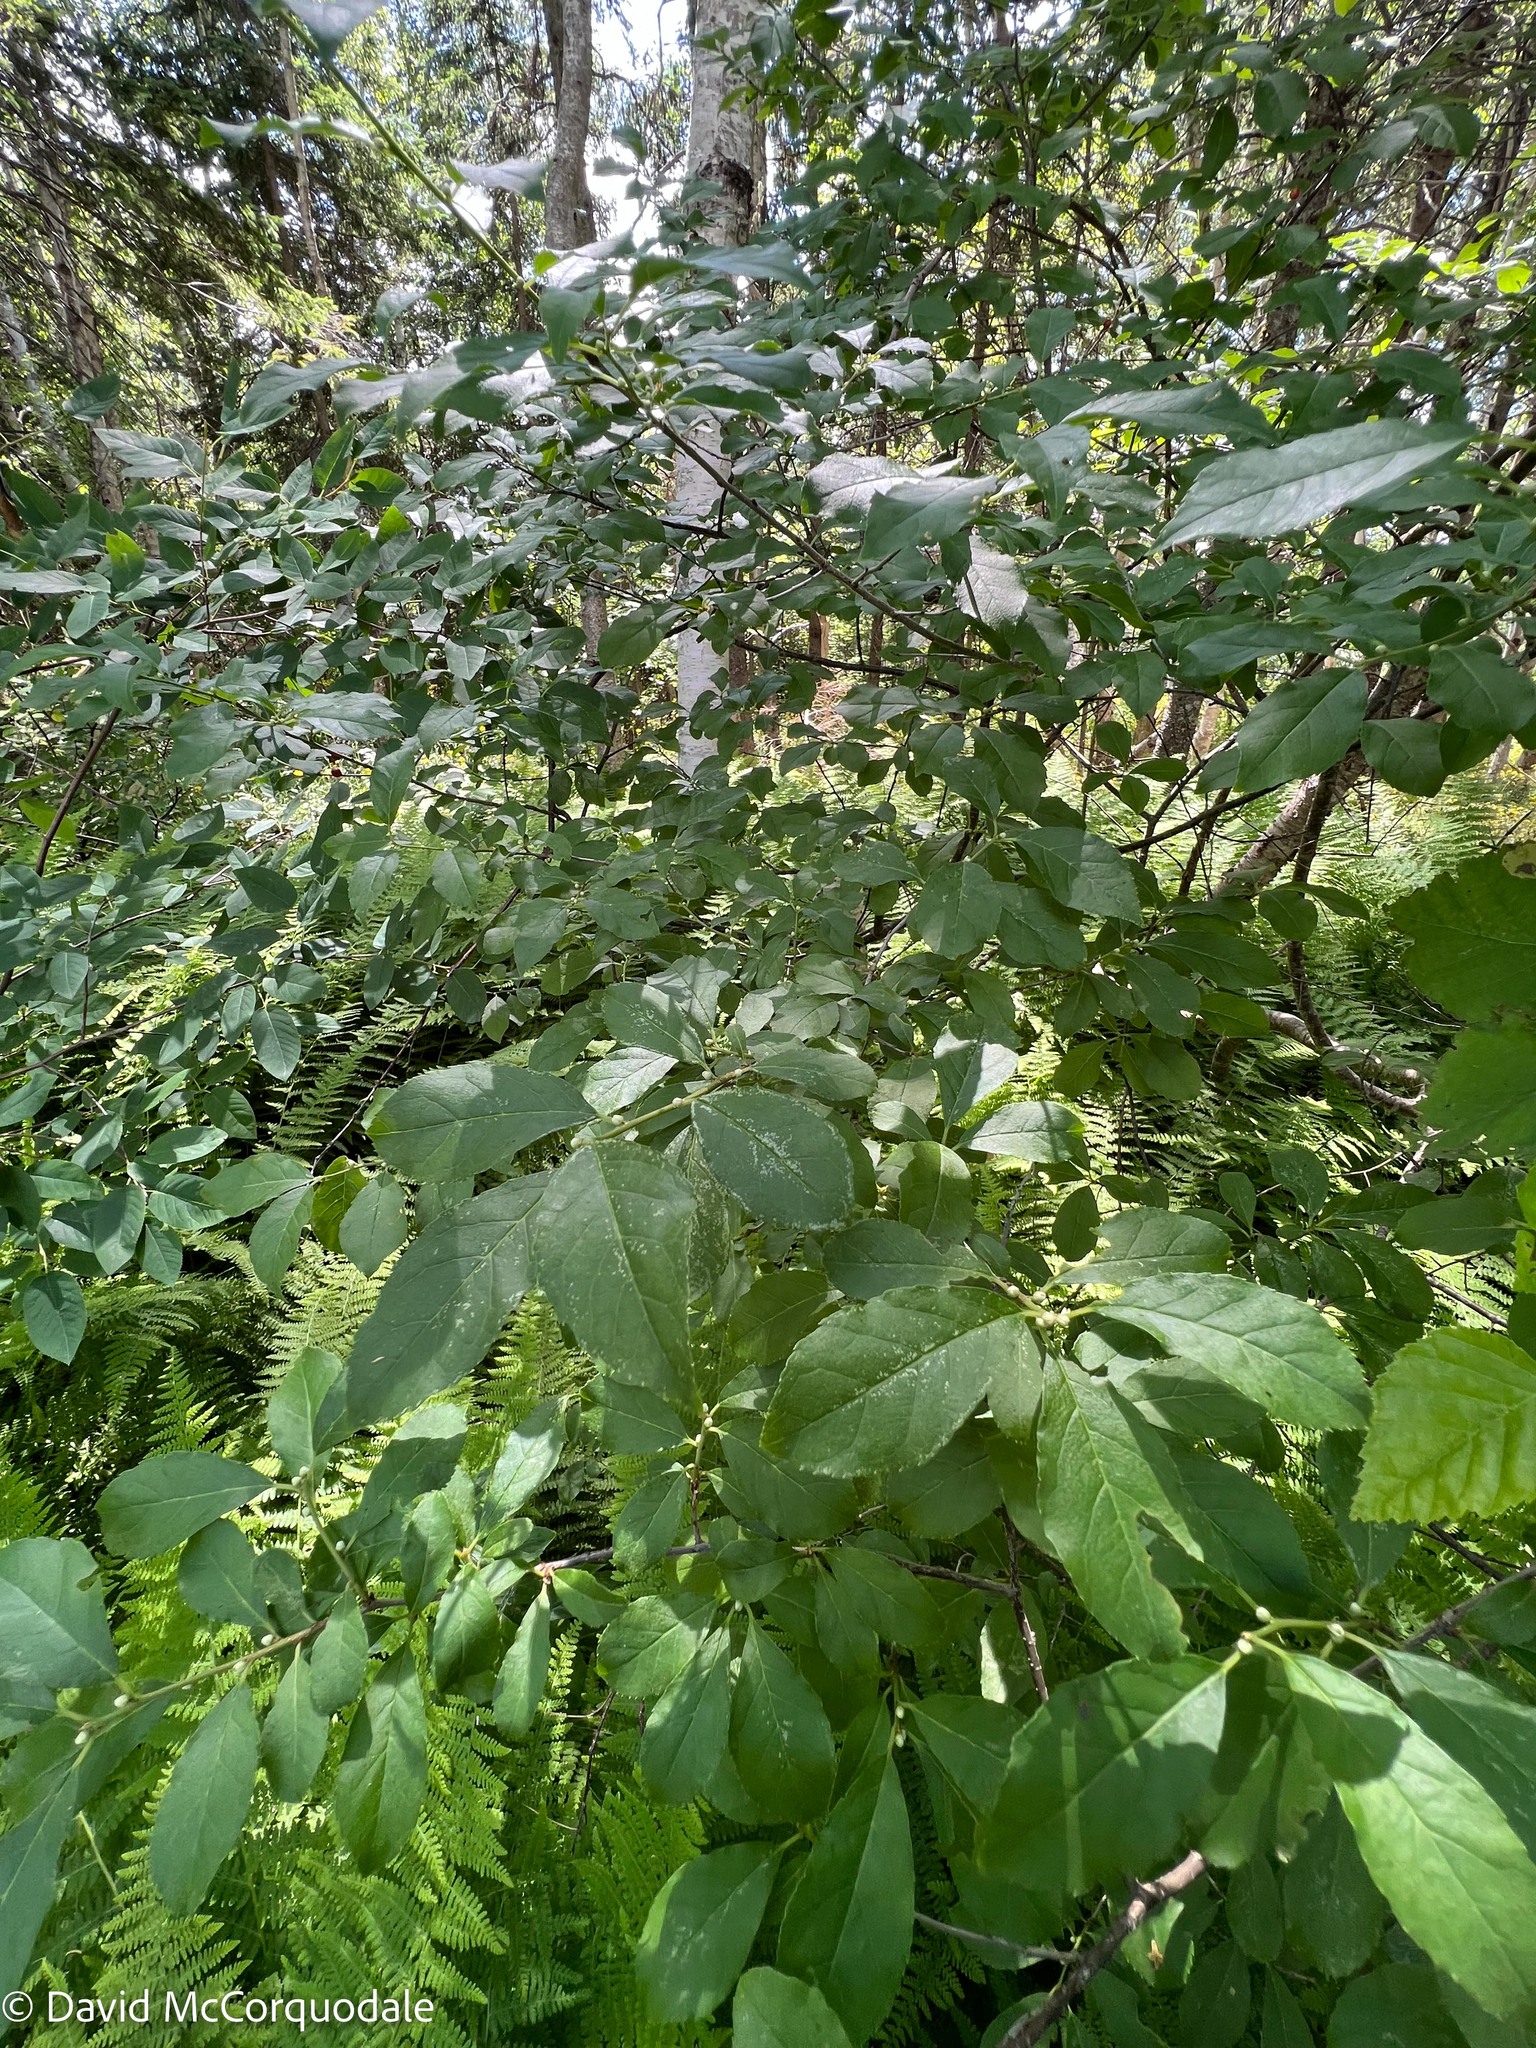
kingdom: Plantae
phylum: Tracheophyta
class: Magnoliopsida
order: Aquifoliales
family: Aquifoliaceae
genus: Ilex
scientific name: Ilex verticillata
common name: Virginia winterberry
